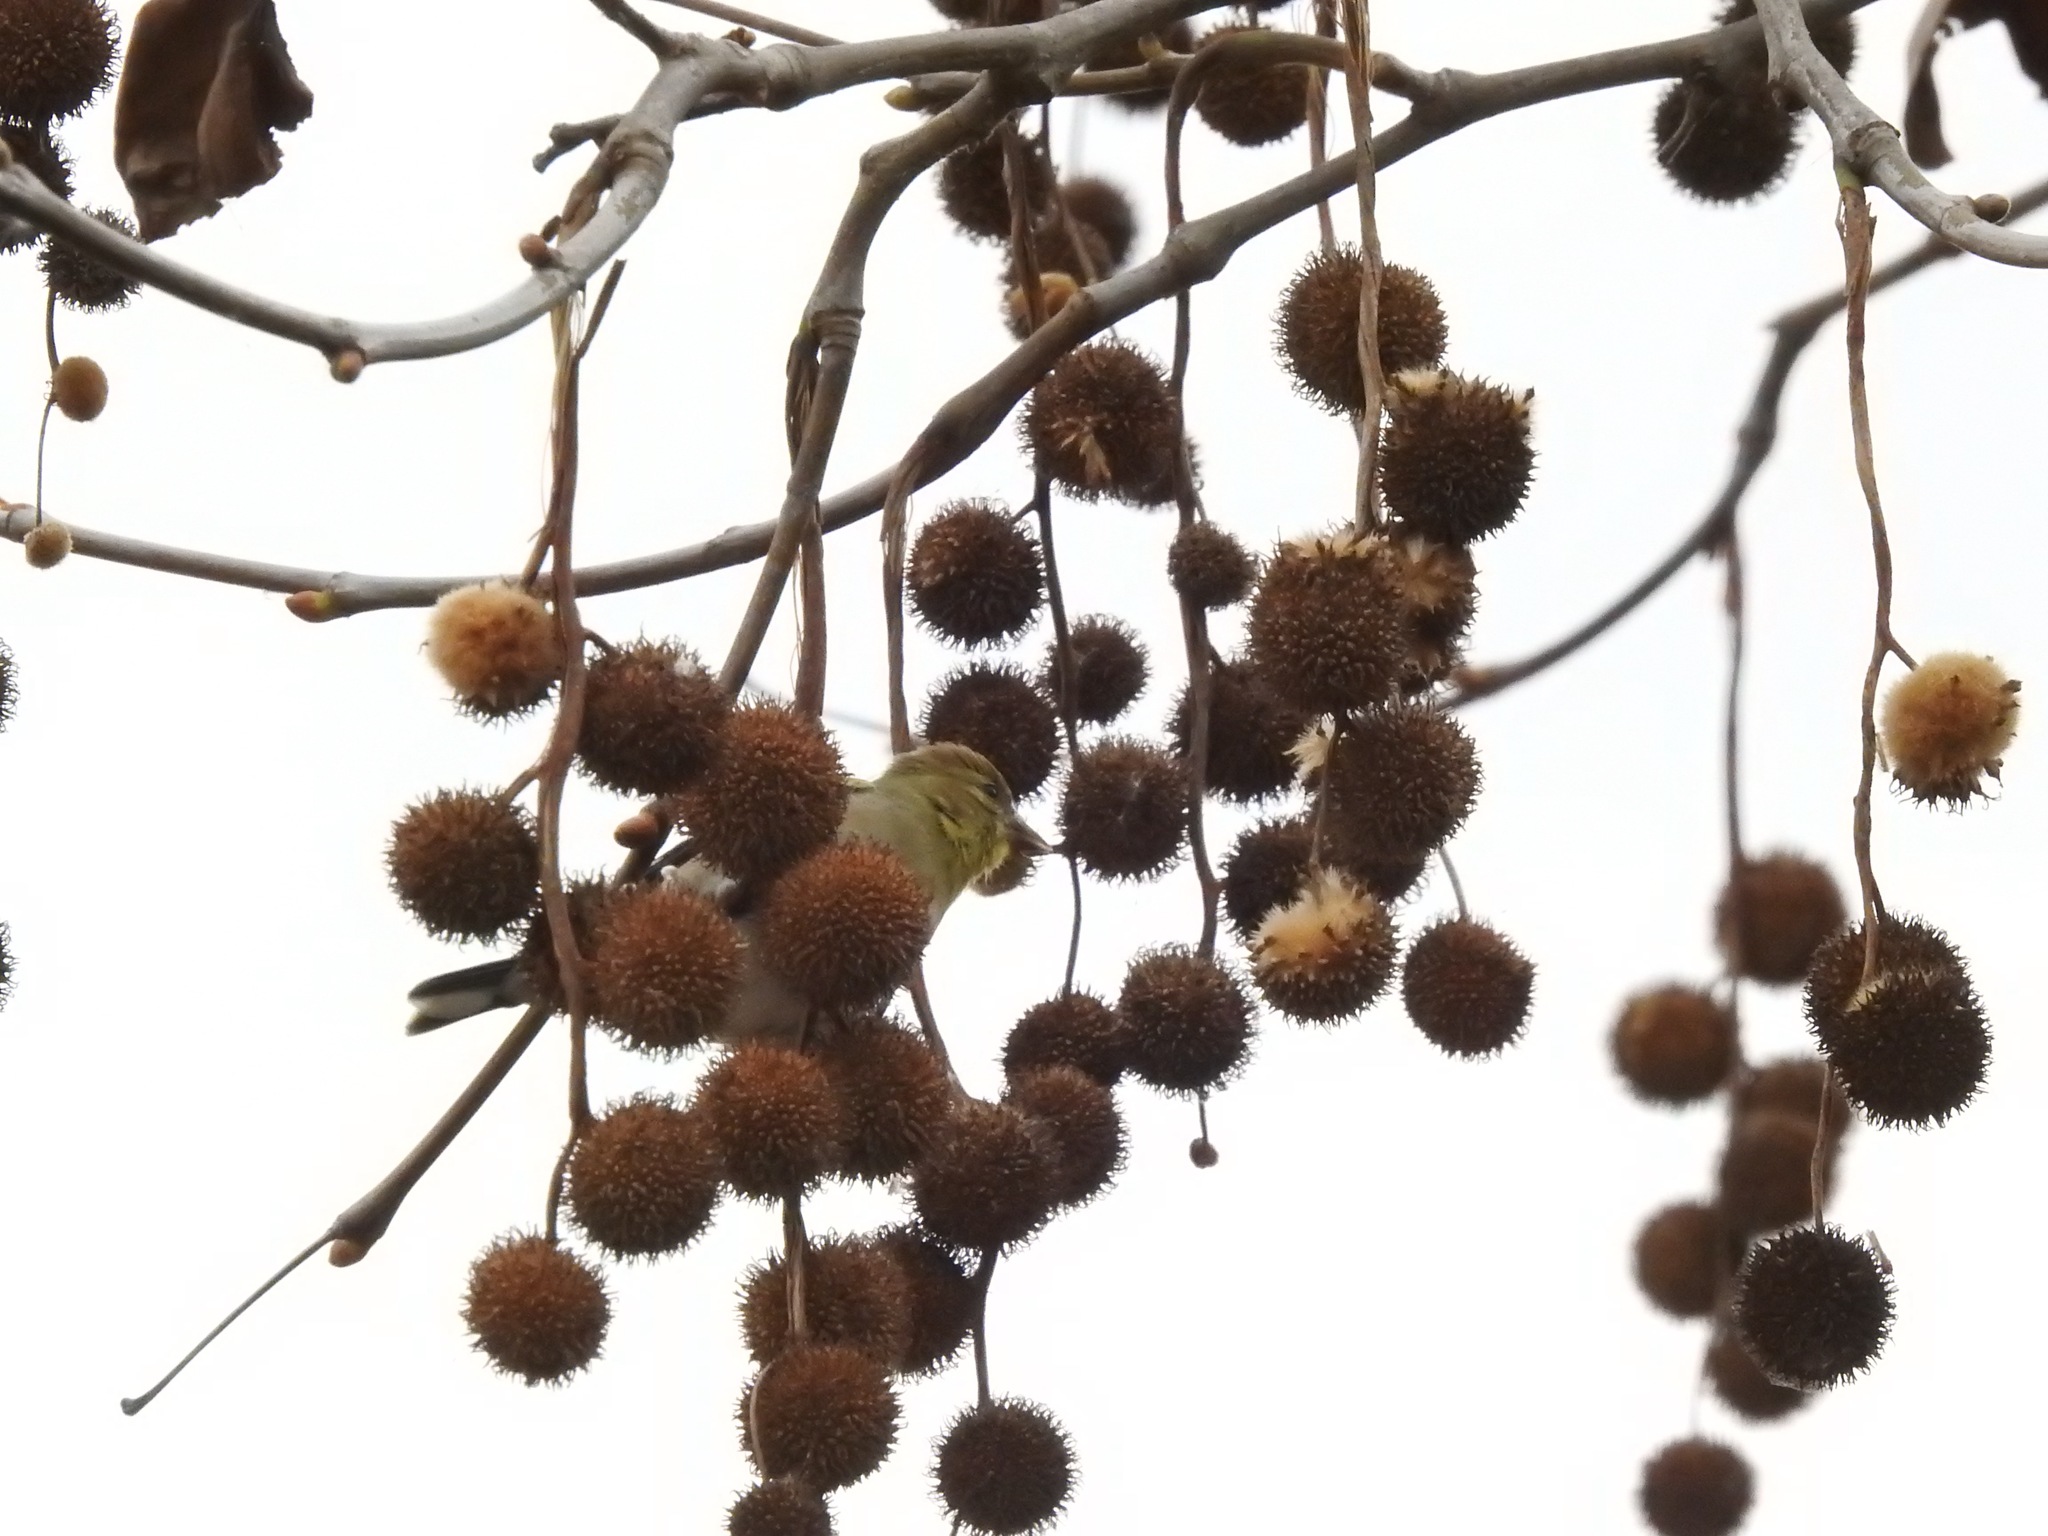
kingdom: Animalia
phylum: Chordata
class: Aves
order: Passeriformes
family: Fringillidae
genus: Spinus
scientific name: Spinus tristis
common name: American goldfinch
